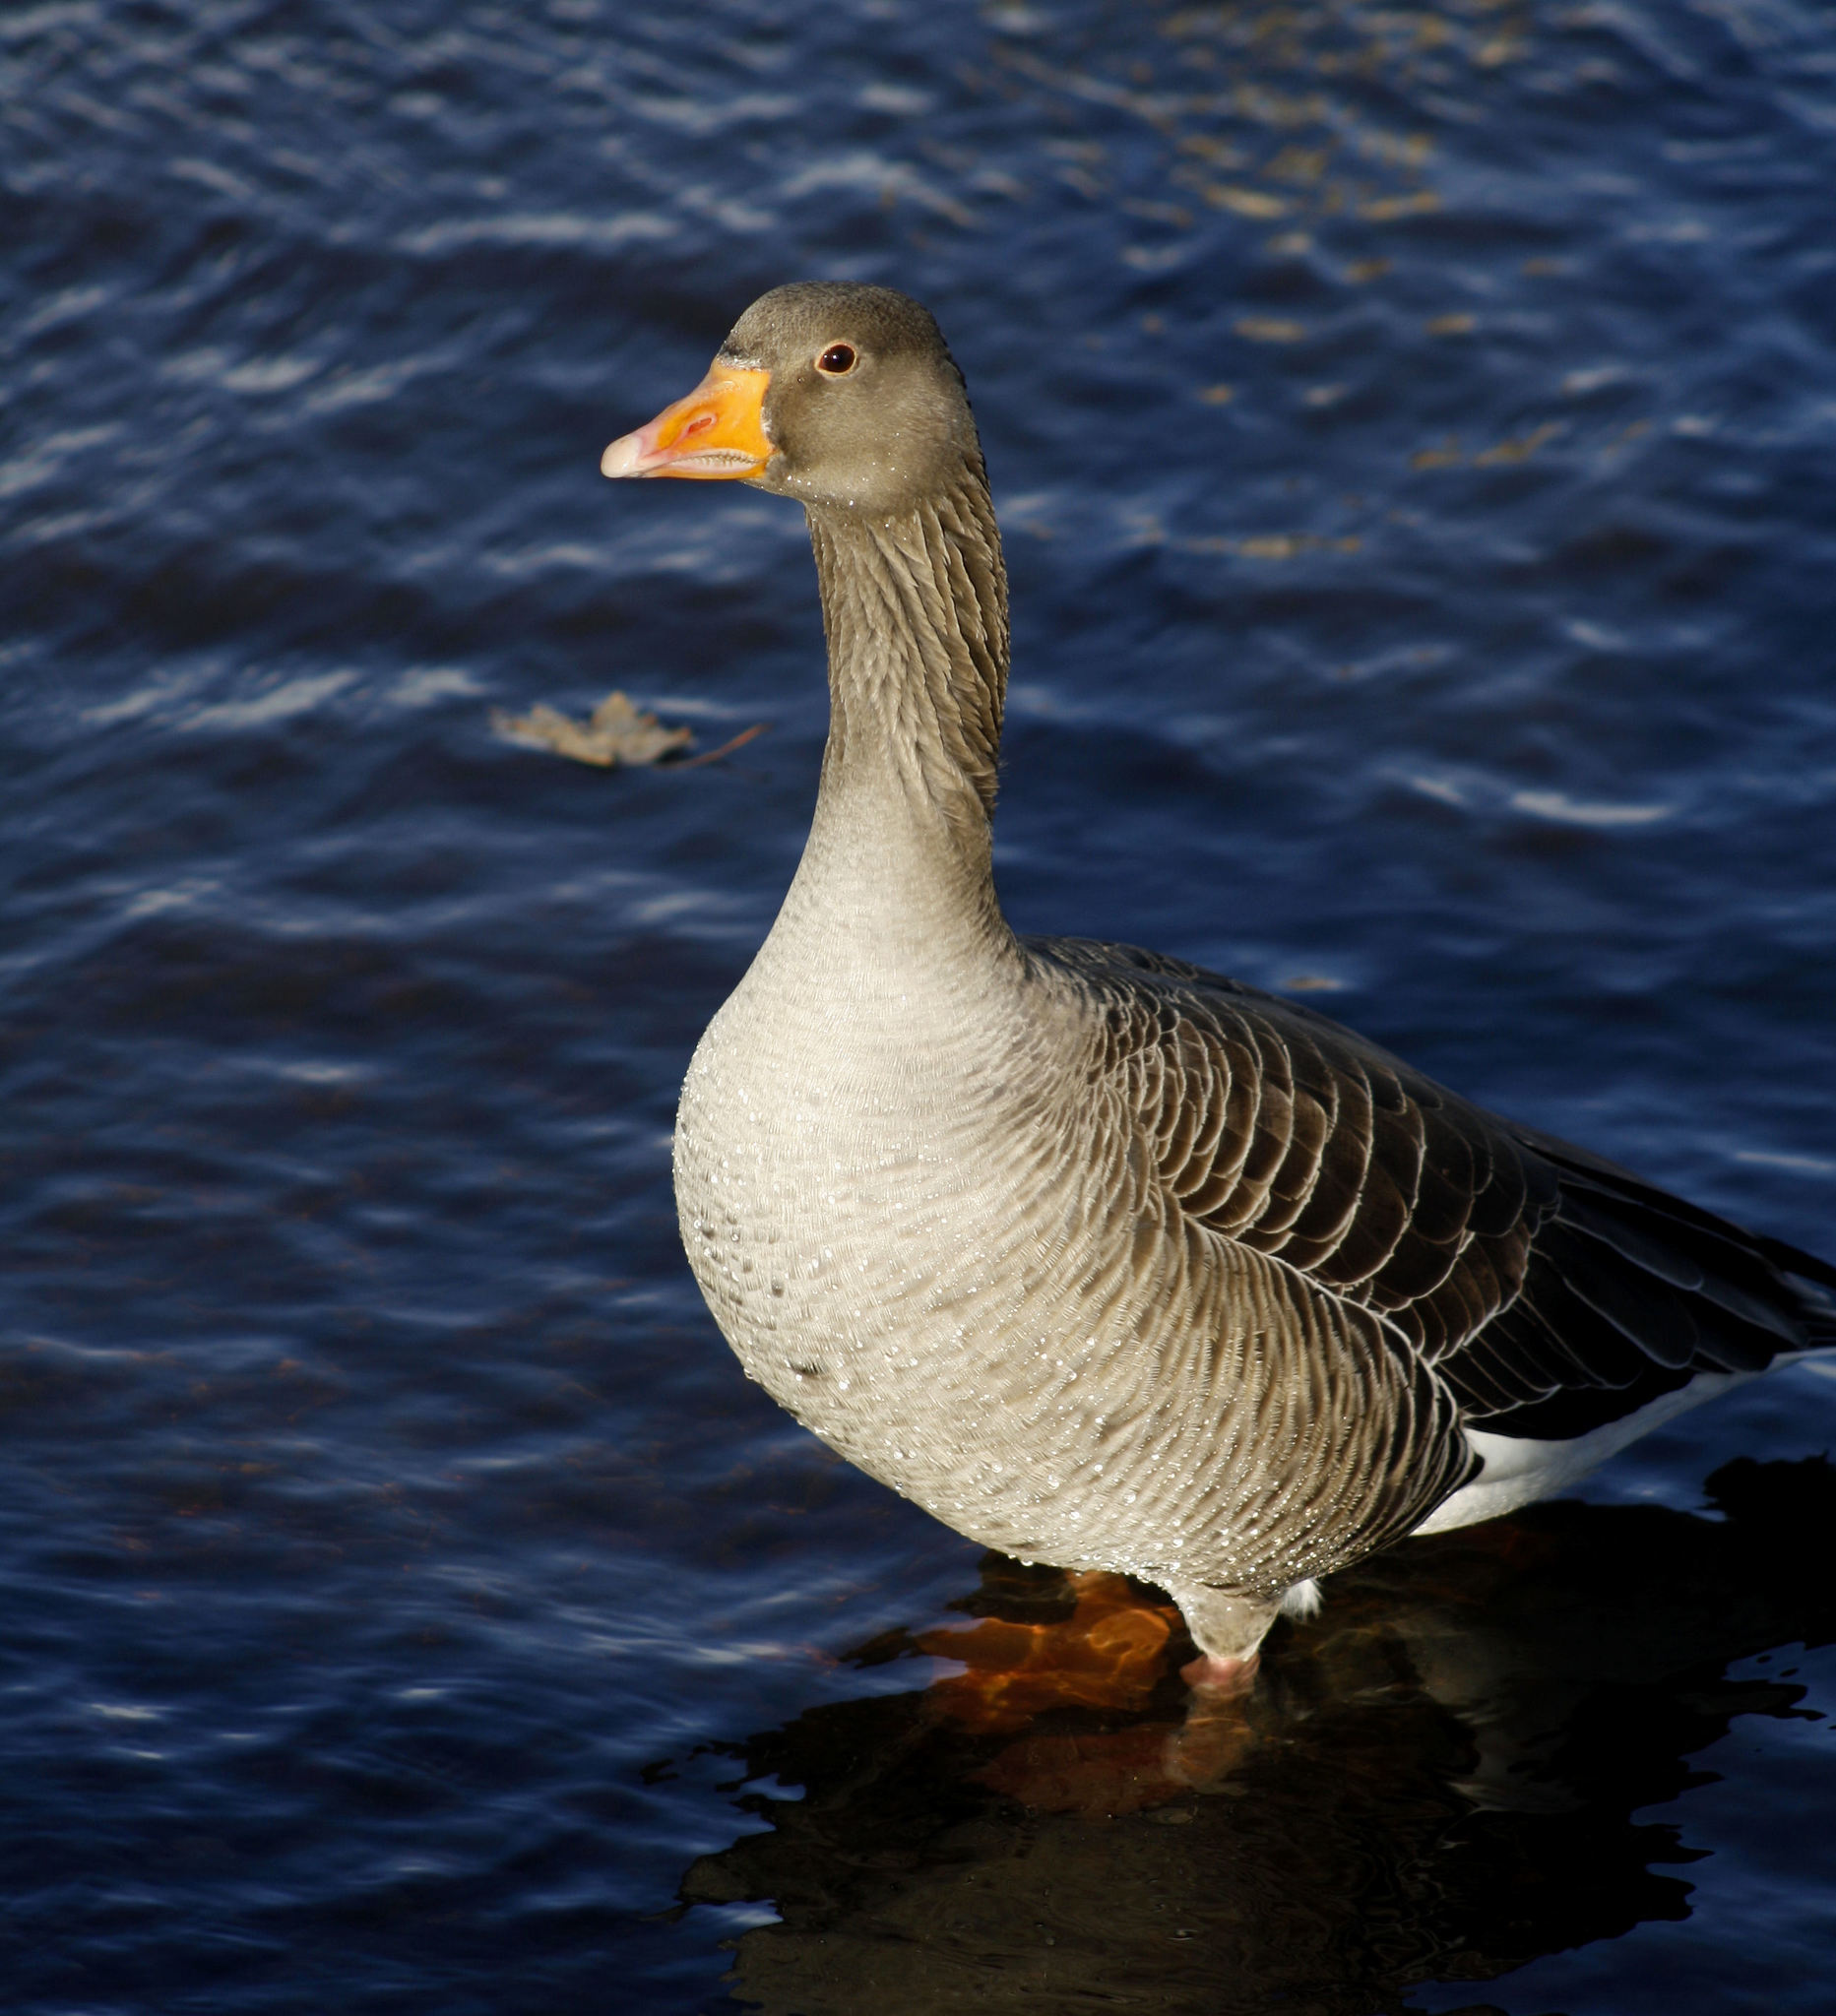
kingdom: Animalia
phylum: Chordata
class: Aves
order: Anseriformes
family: Anatidae
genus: Anser
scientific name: Anser anser
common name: Greylag goose
